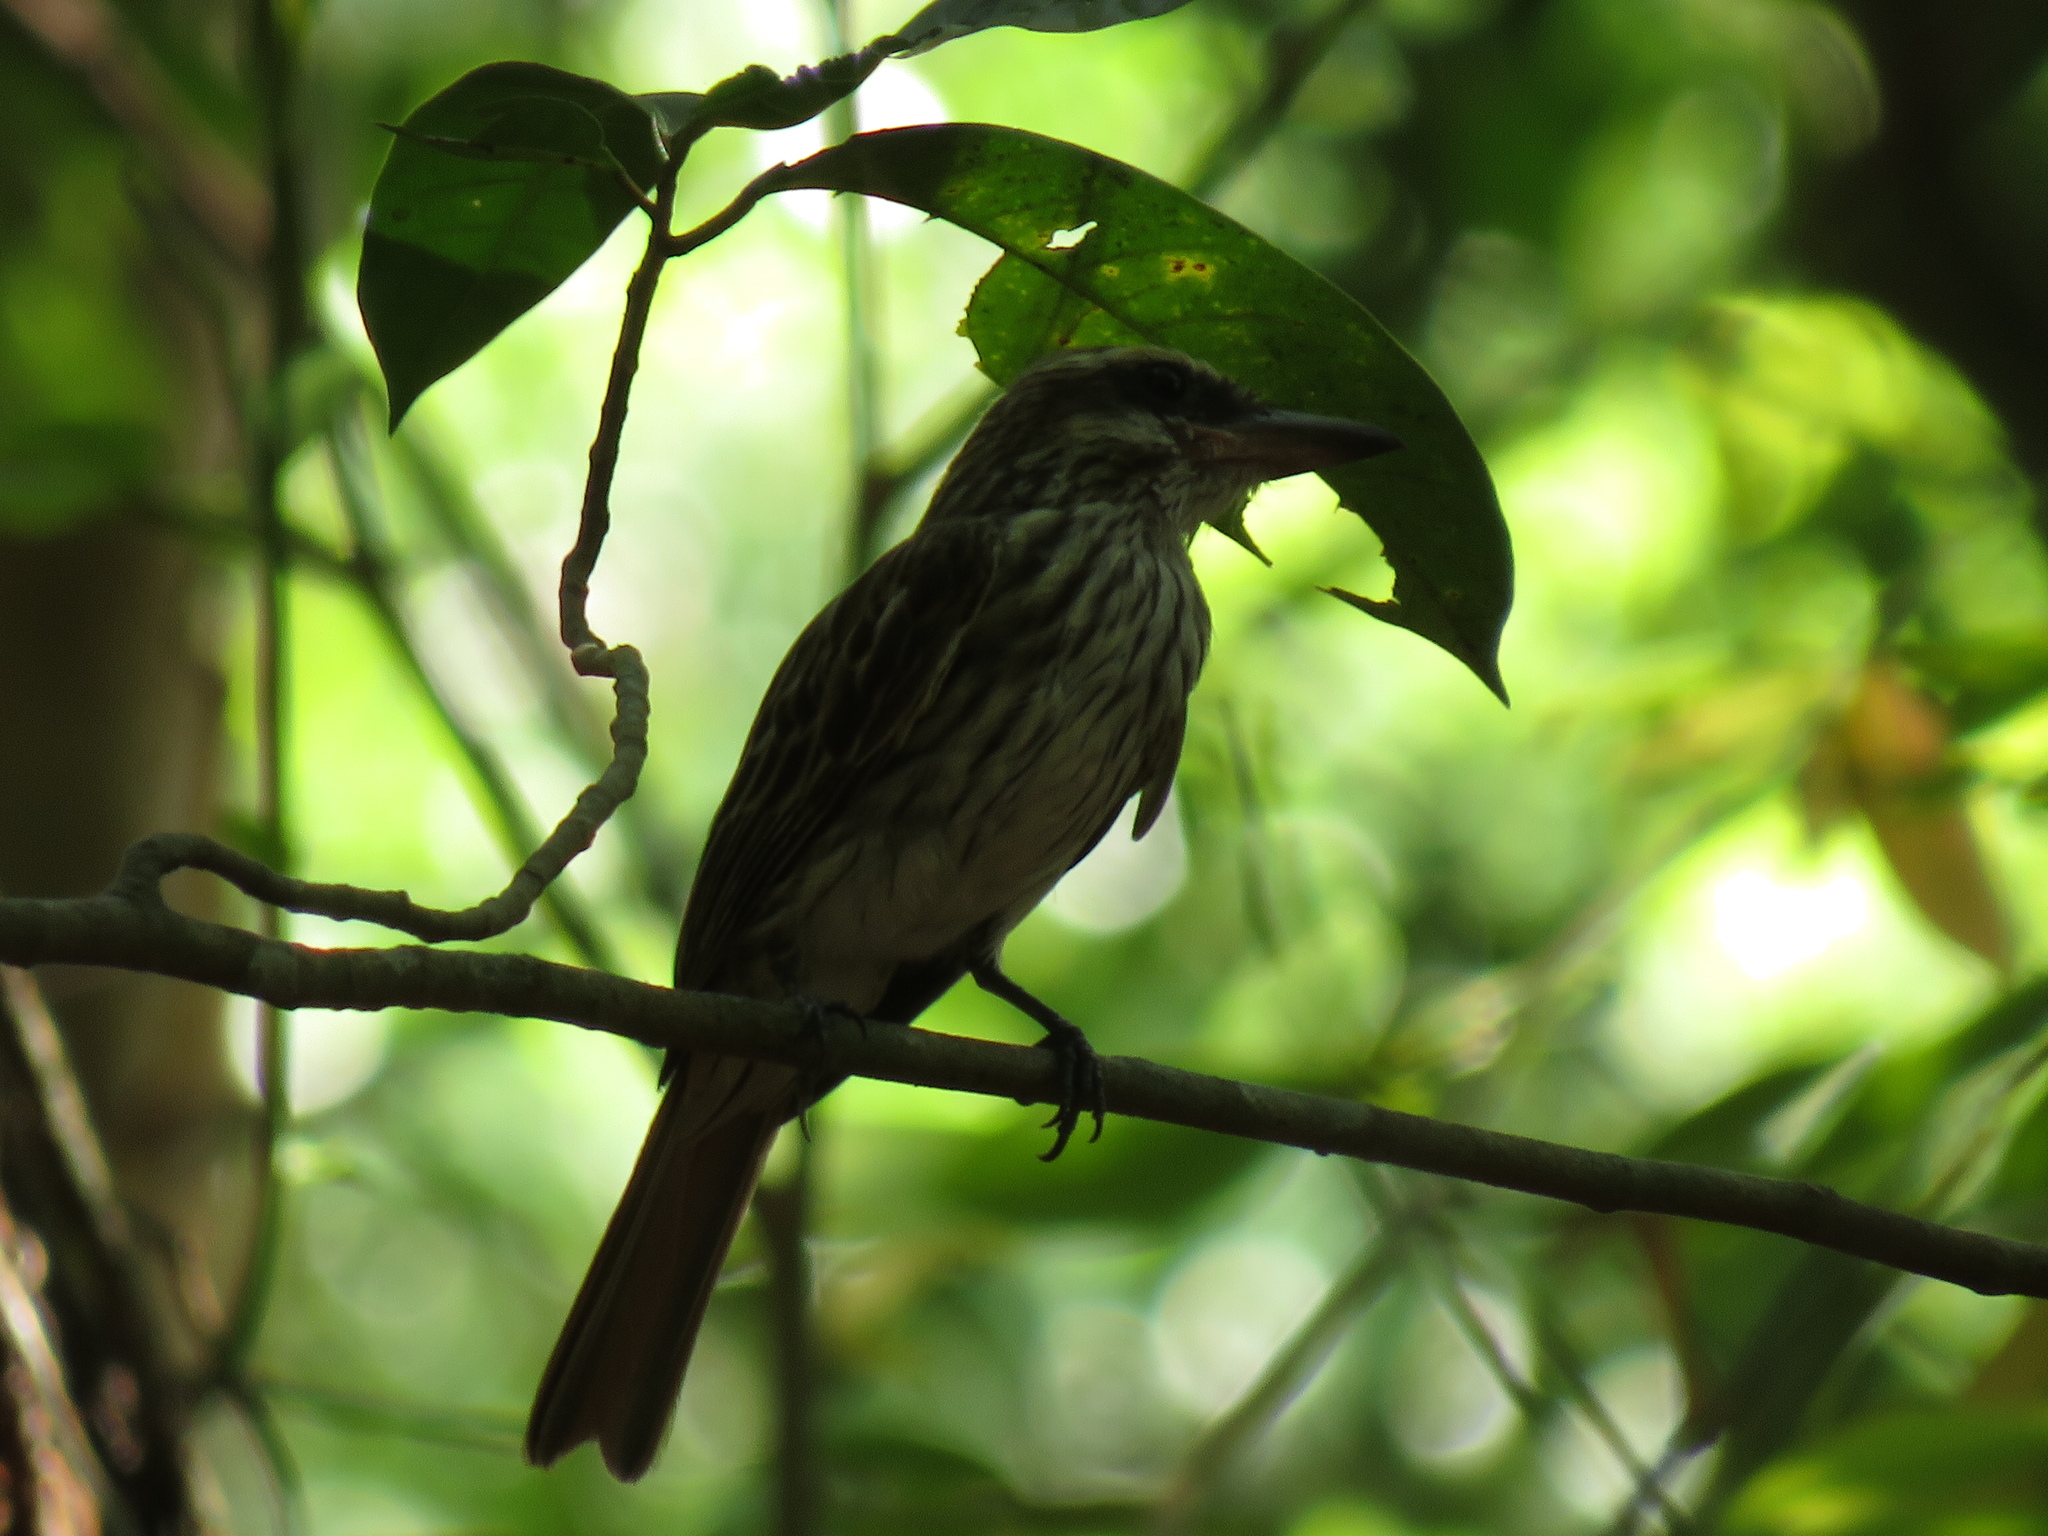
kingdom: Animalia
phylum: Chordata
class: Aves
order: Passeriformes
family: Tyrannidae
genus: Myiodynastes
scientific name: Myiodynastes maculatus
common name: Streaked flycatcher
